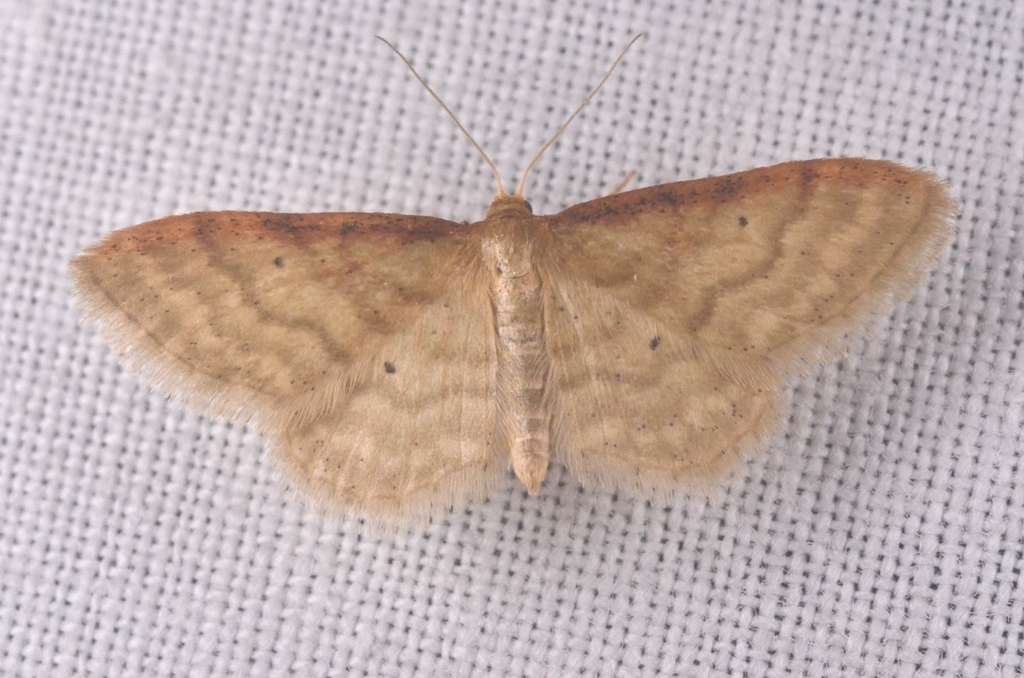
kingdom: Animalia
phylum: Arthropoda
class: Insecta
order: Lepidoptera
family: Geometridae
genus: Idaea
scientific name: Idaea humiliata
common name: Isle of wight wave
